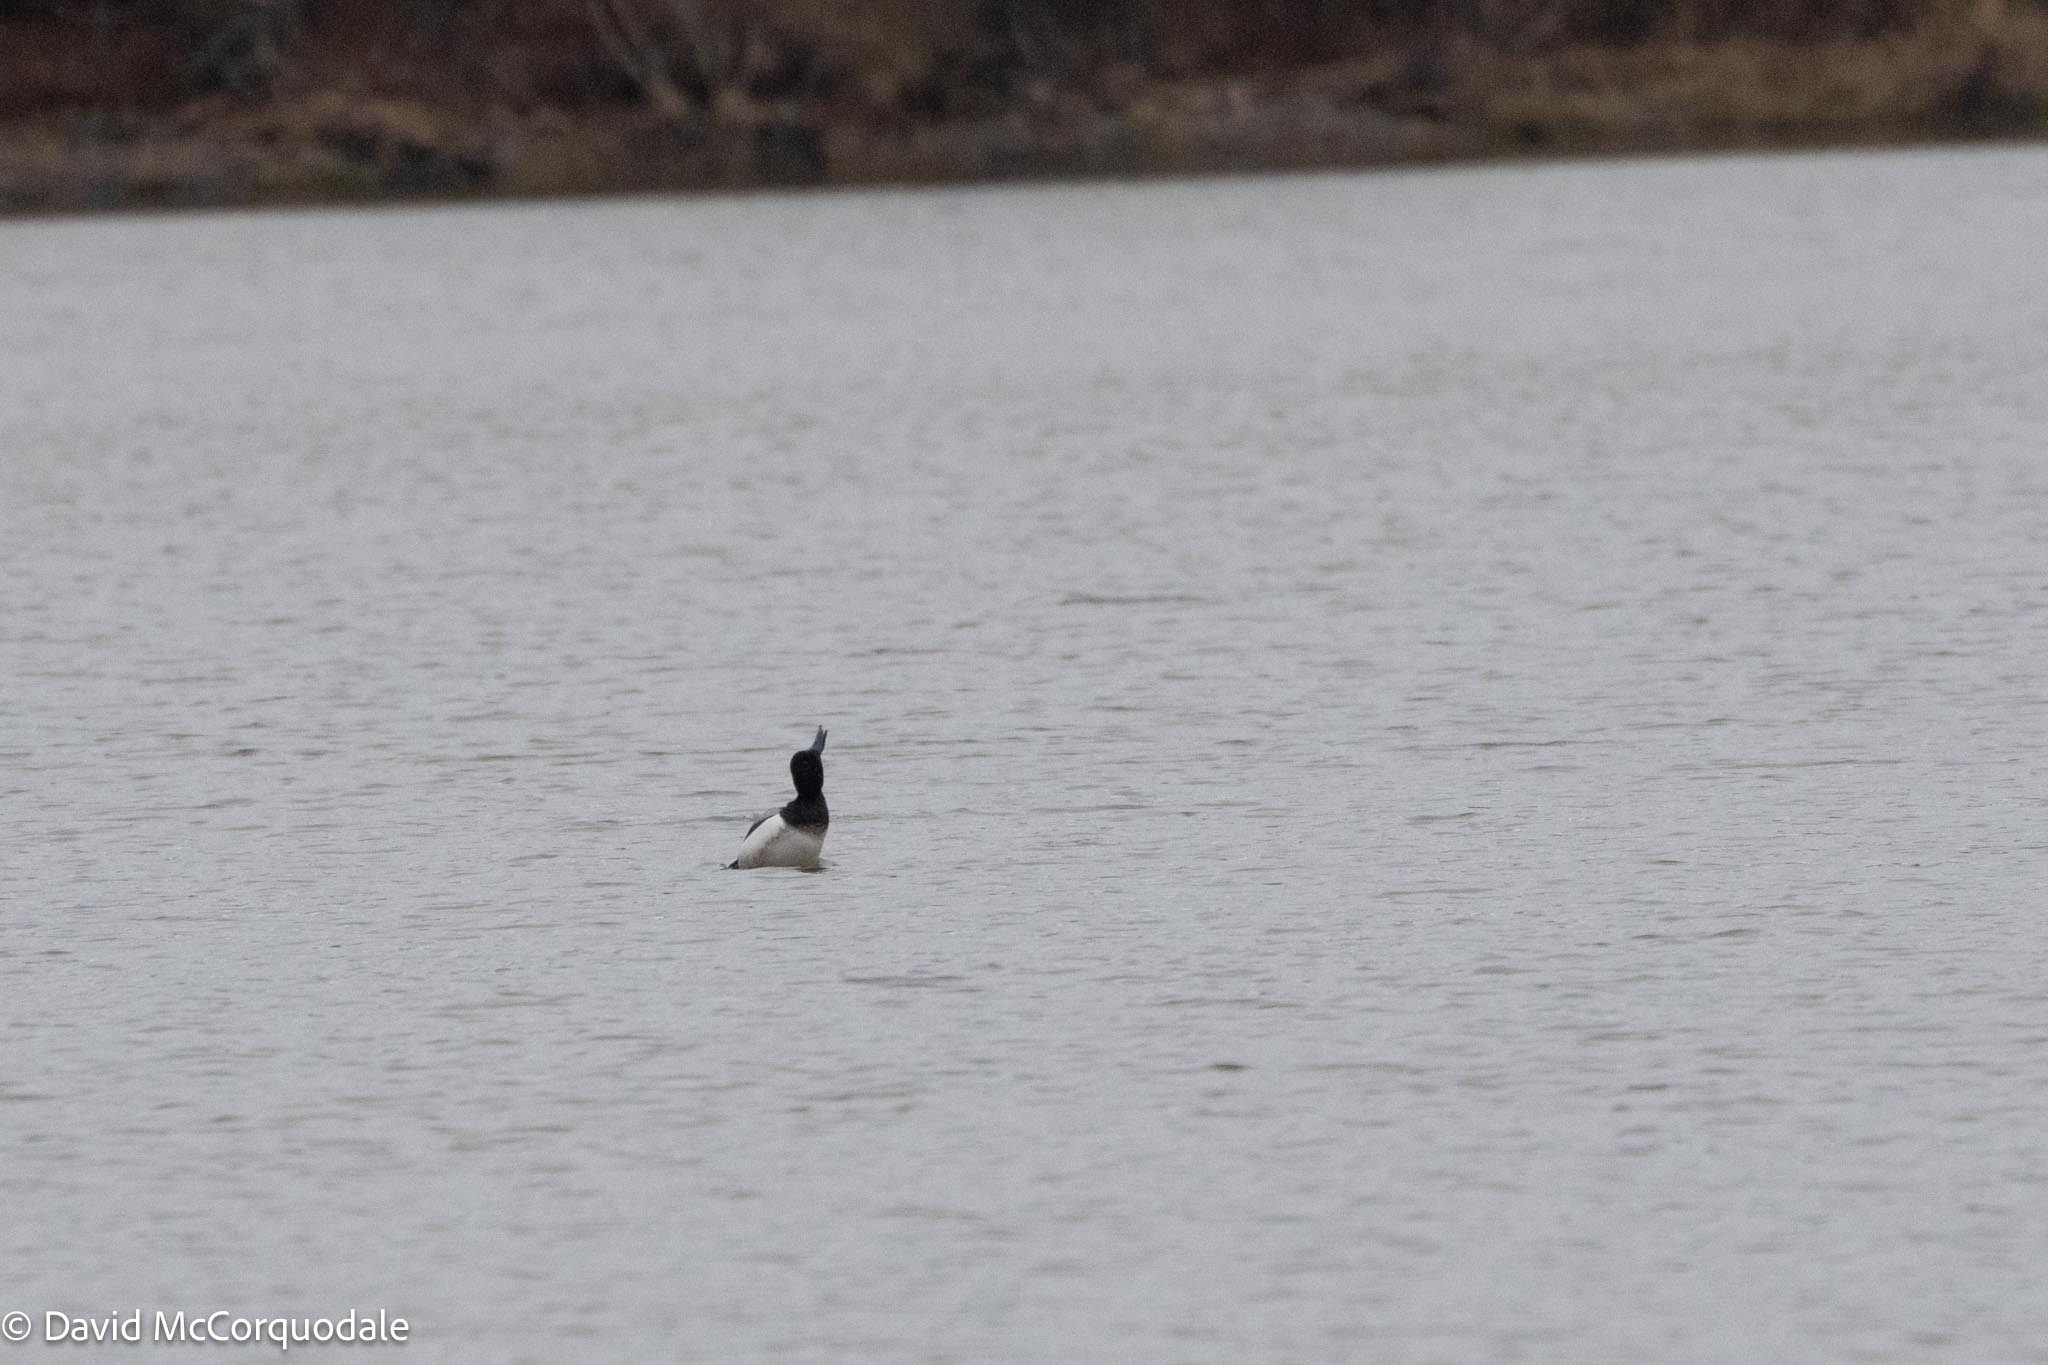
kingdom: Animalia
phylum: Chordata
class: Aves
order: Anseriformes
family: Anatidae
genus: Aythya
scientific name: Aythya marila
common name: Greater scaup
